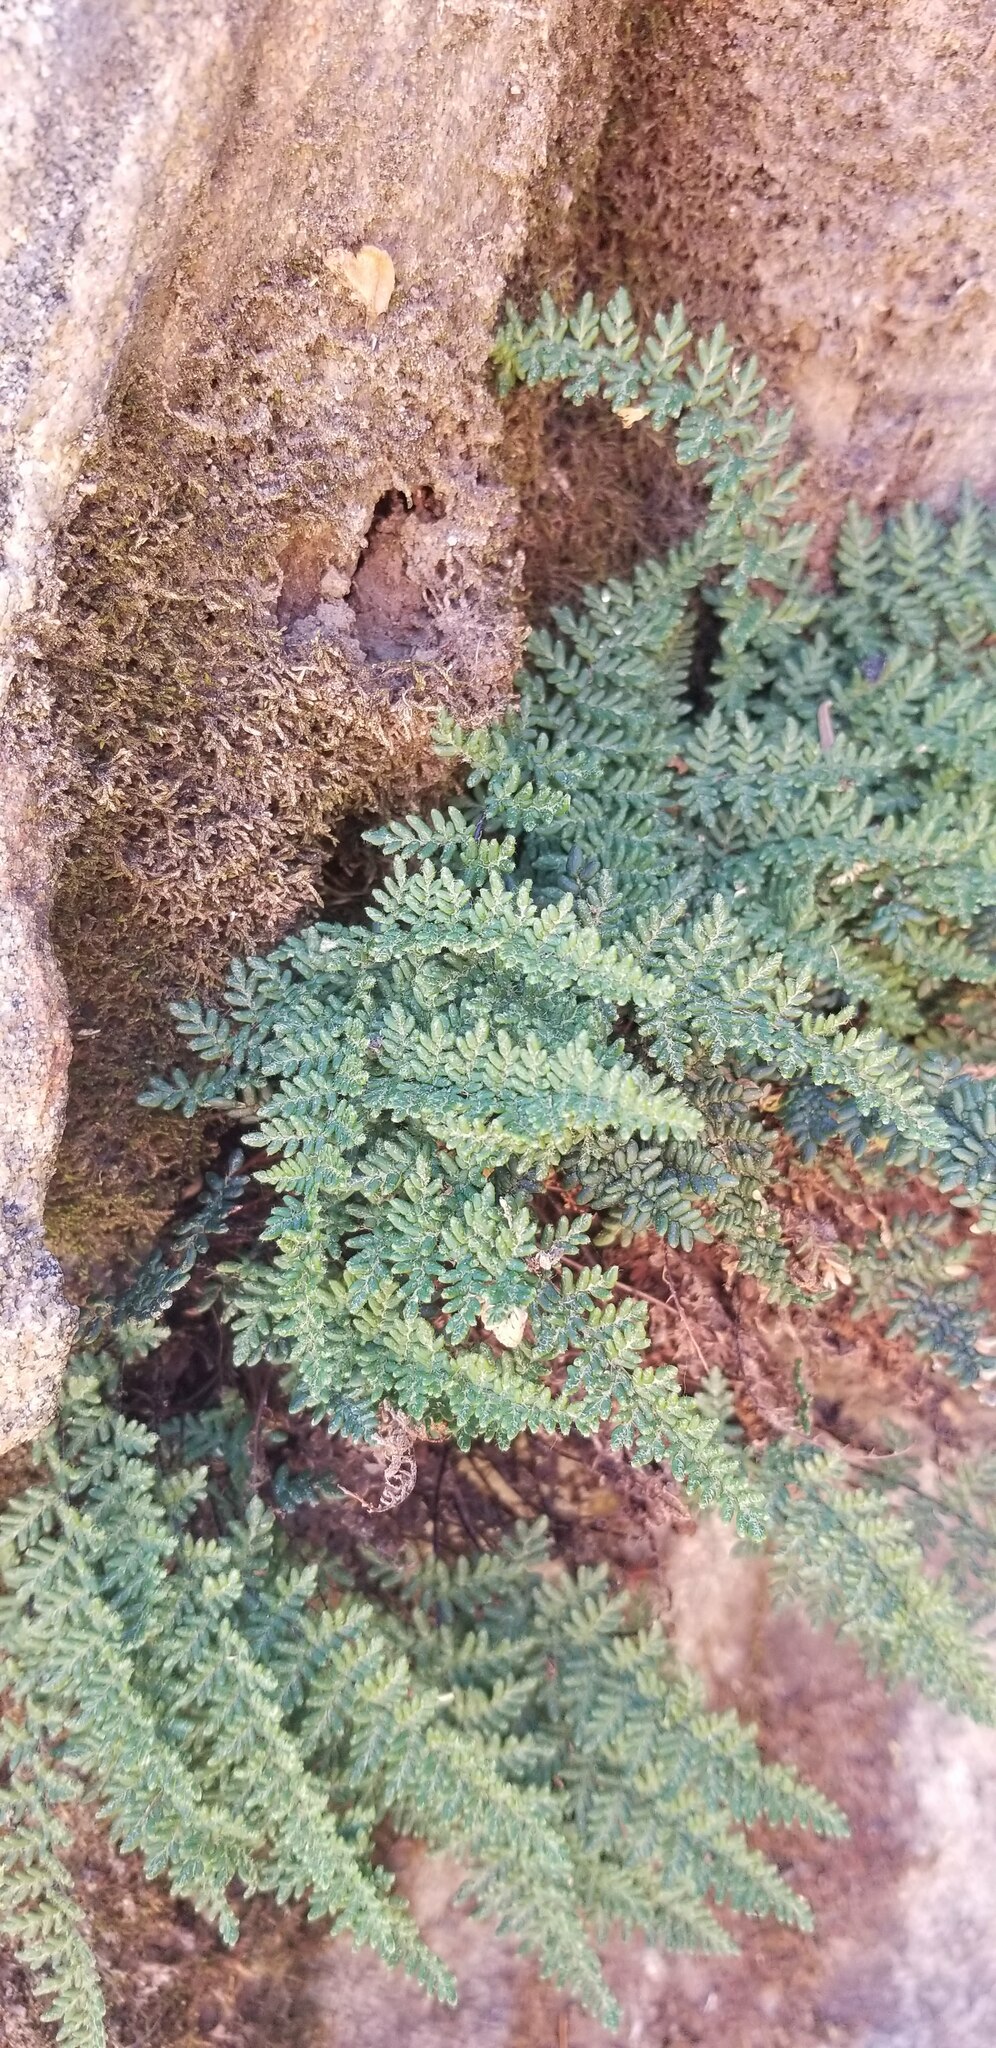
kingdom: Plantae
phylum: Tracheophyta
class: Polypodiopsida
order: Polypodiales
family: Pteridaceae
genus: Myriopteris
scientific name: Myriopteris gracillima
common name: Lace fern
